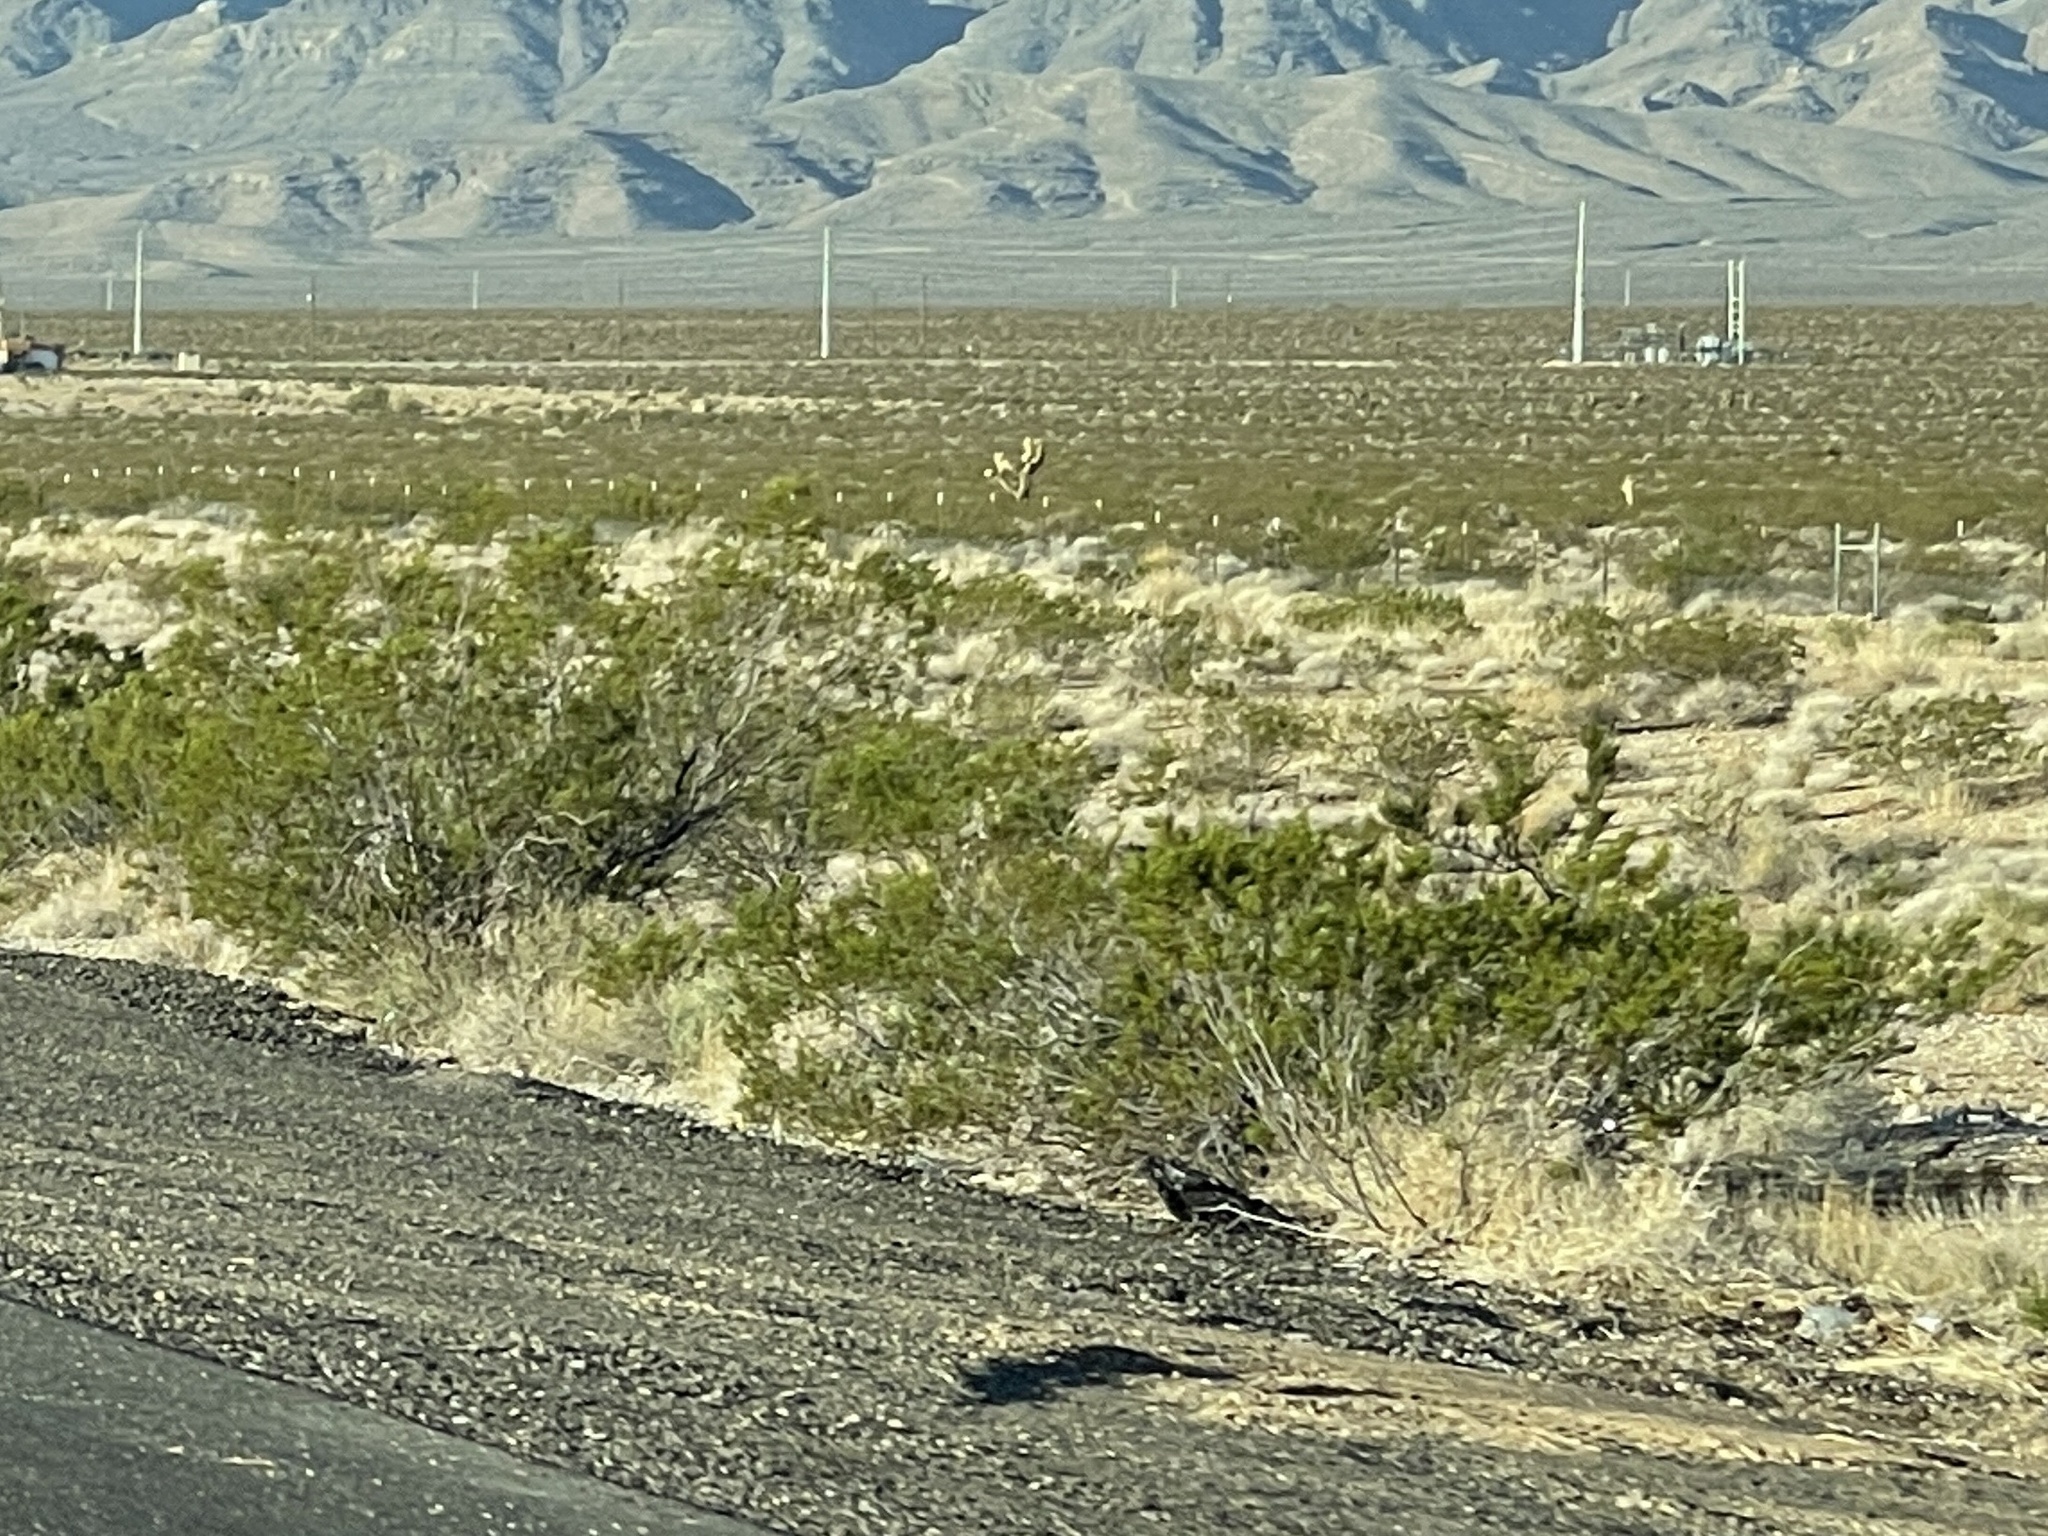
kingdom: Plantae
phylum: Tracheophyta
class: Magnoliopsida
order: Zygophyllales
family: Zygophyllaceae
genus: Larrea
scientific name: Larrea tridentata
